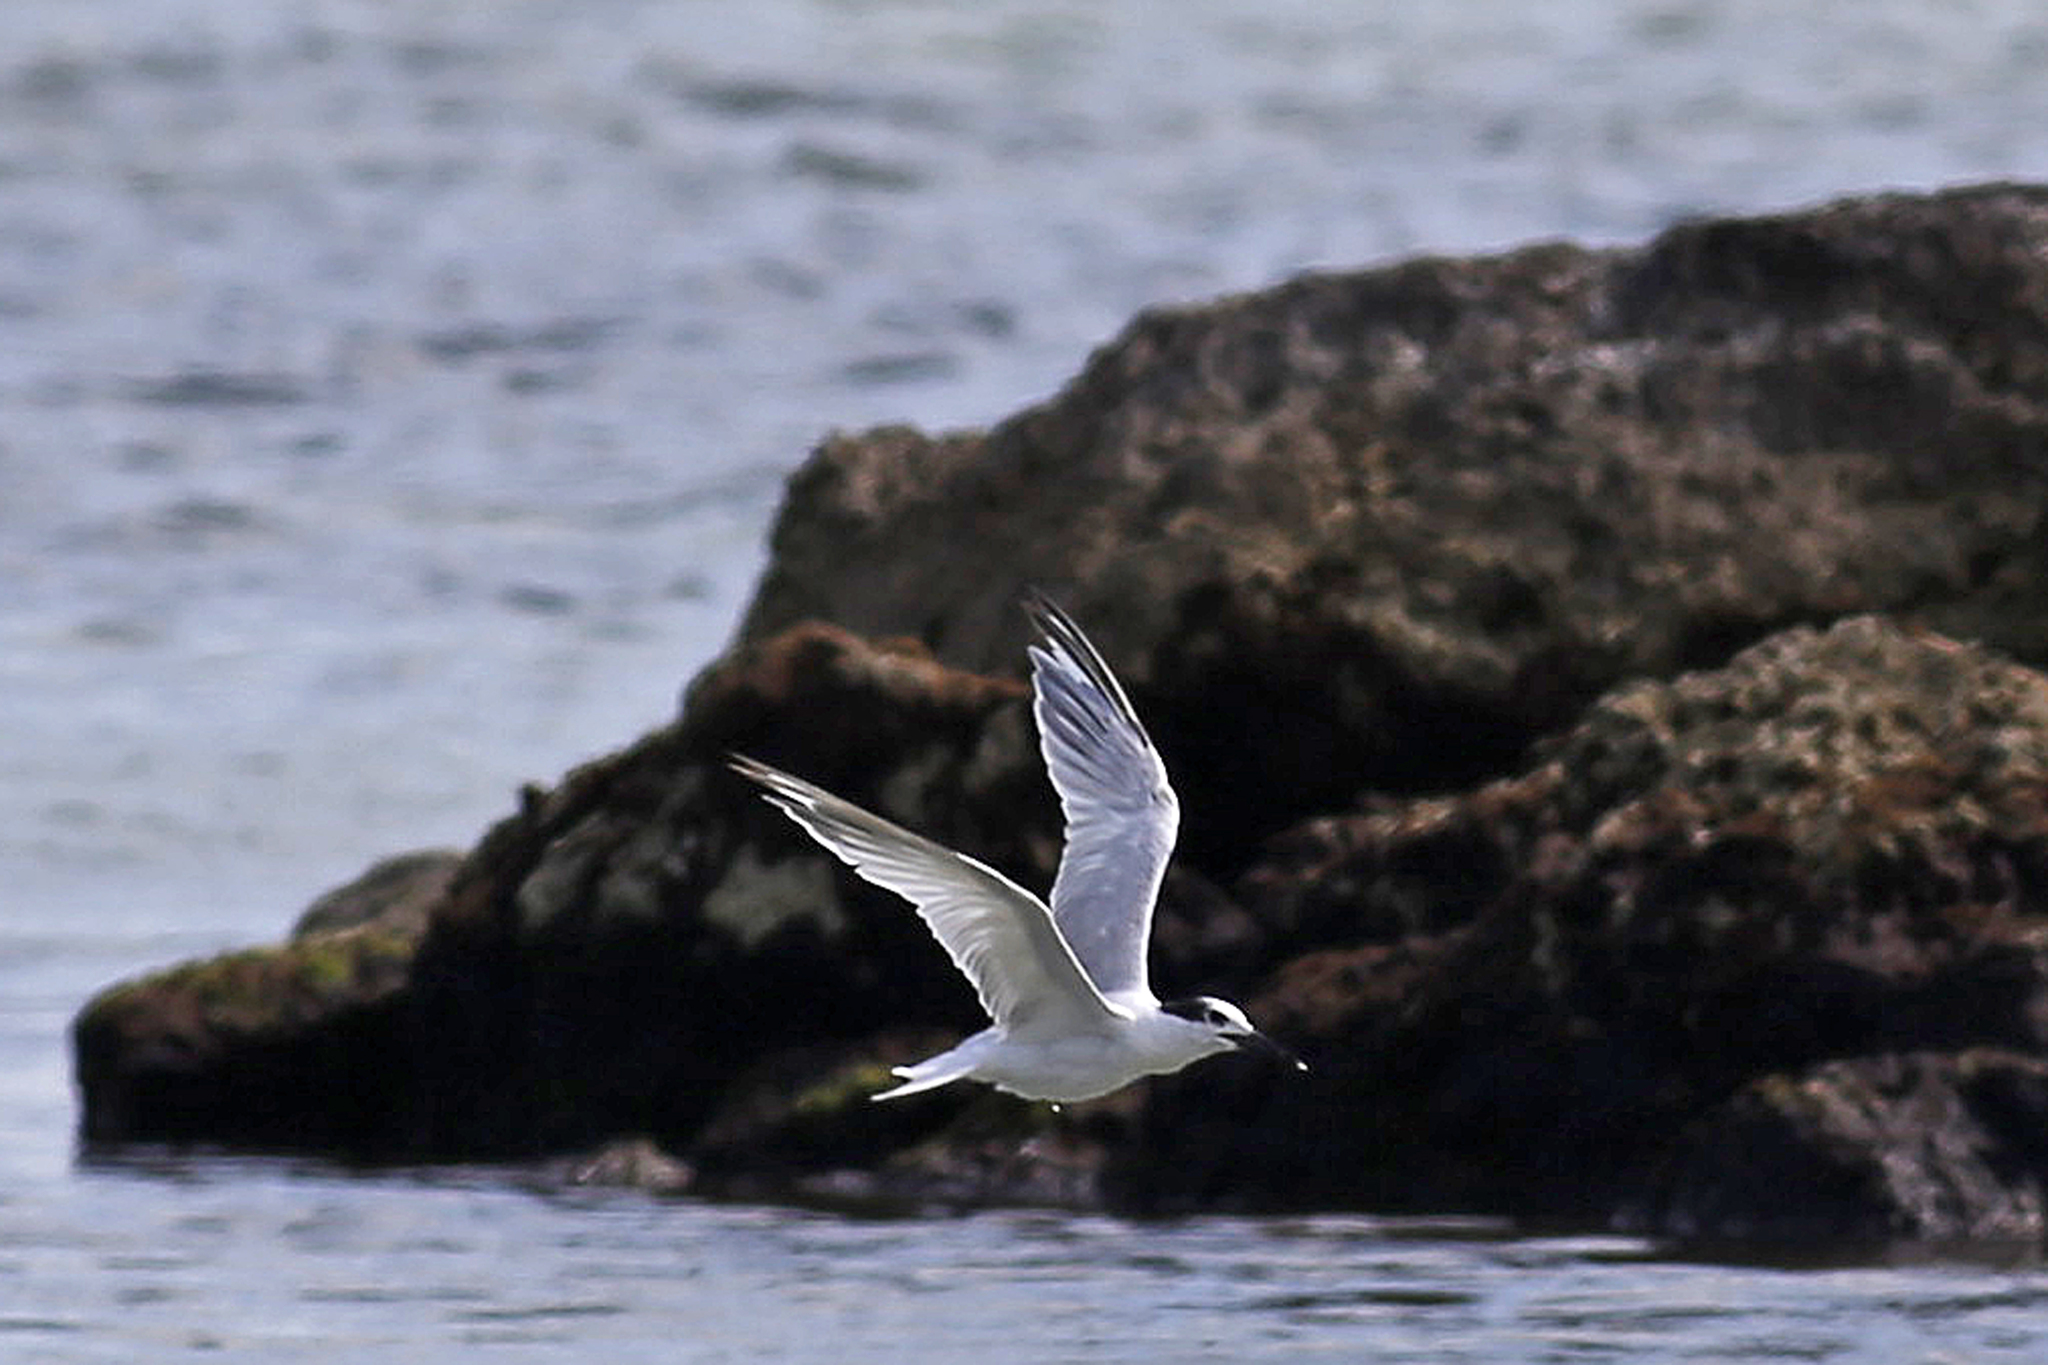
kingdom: Animalia
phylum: Chordata
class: Aves
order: Charadriiformes
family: Laridae
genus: Thalasseus
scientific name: Thalasseus sandvicensis
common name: Sandwich tern
